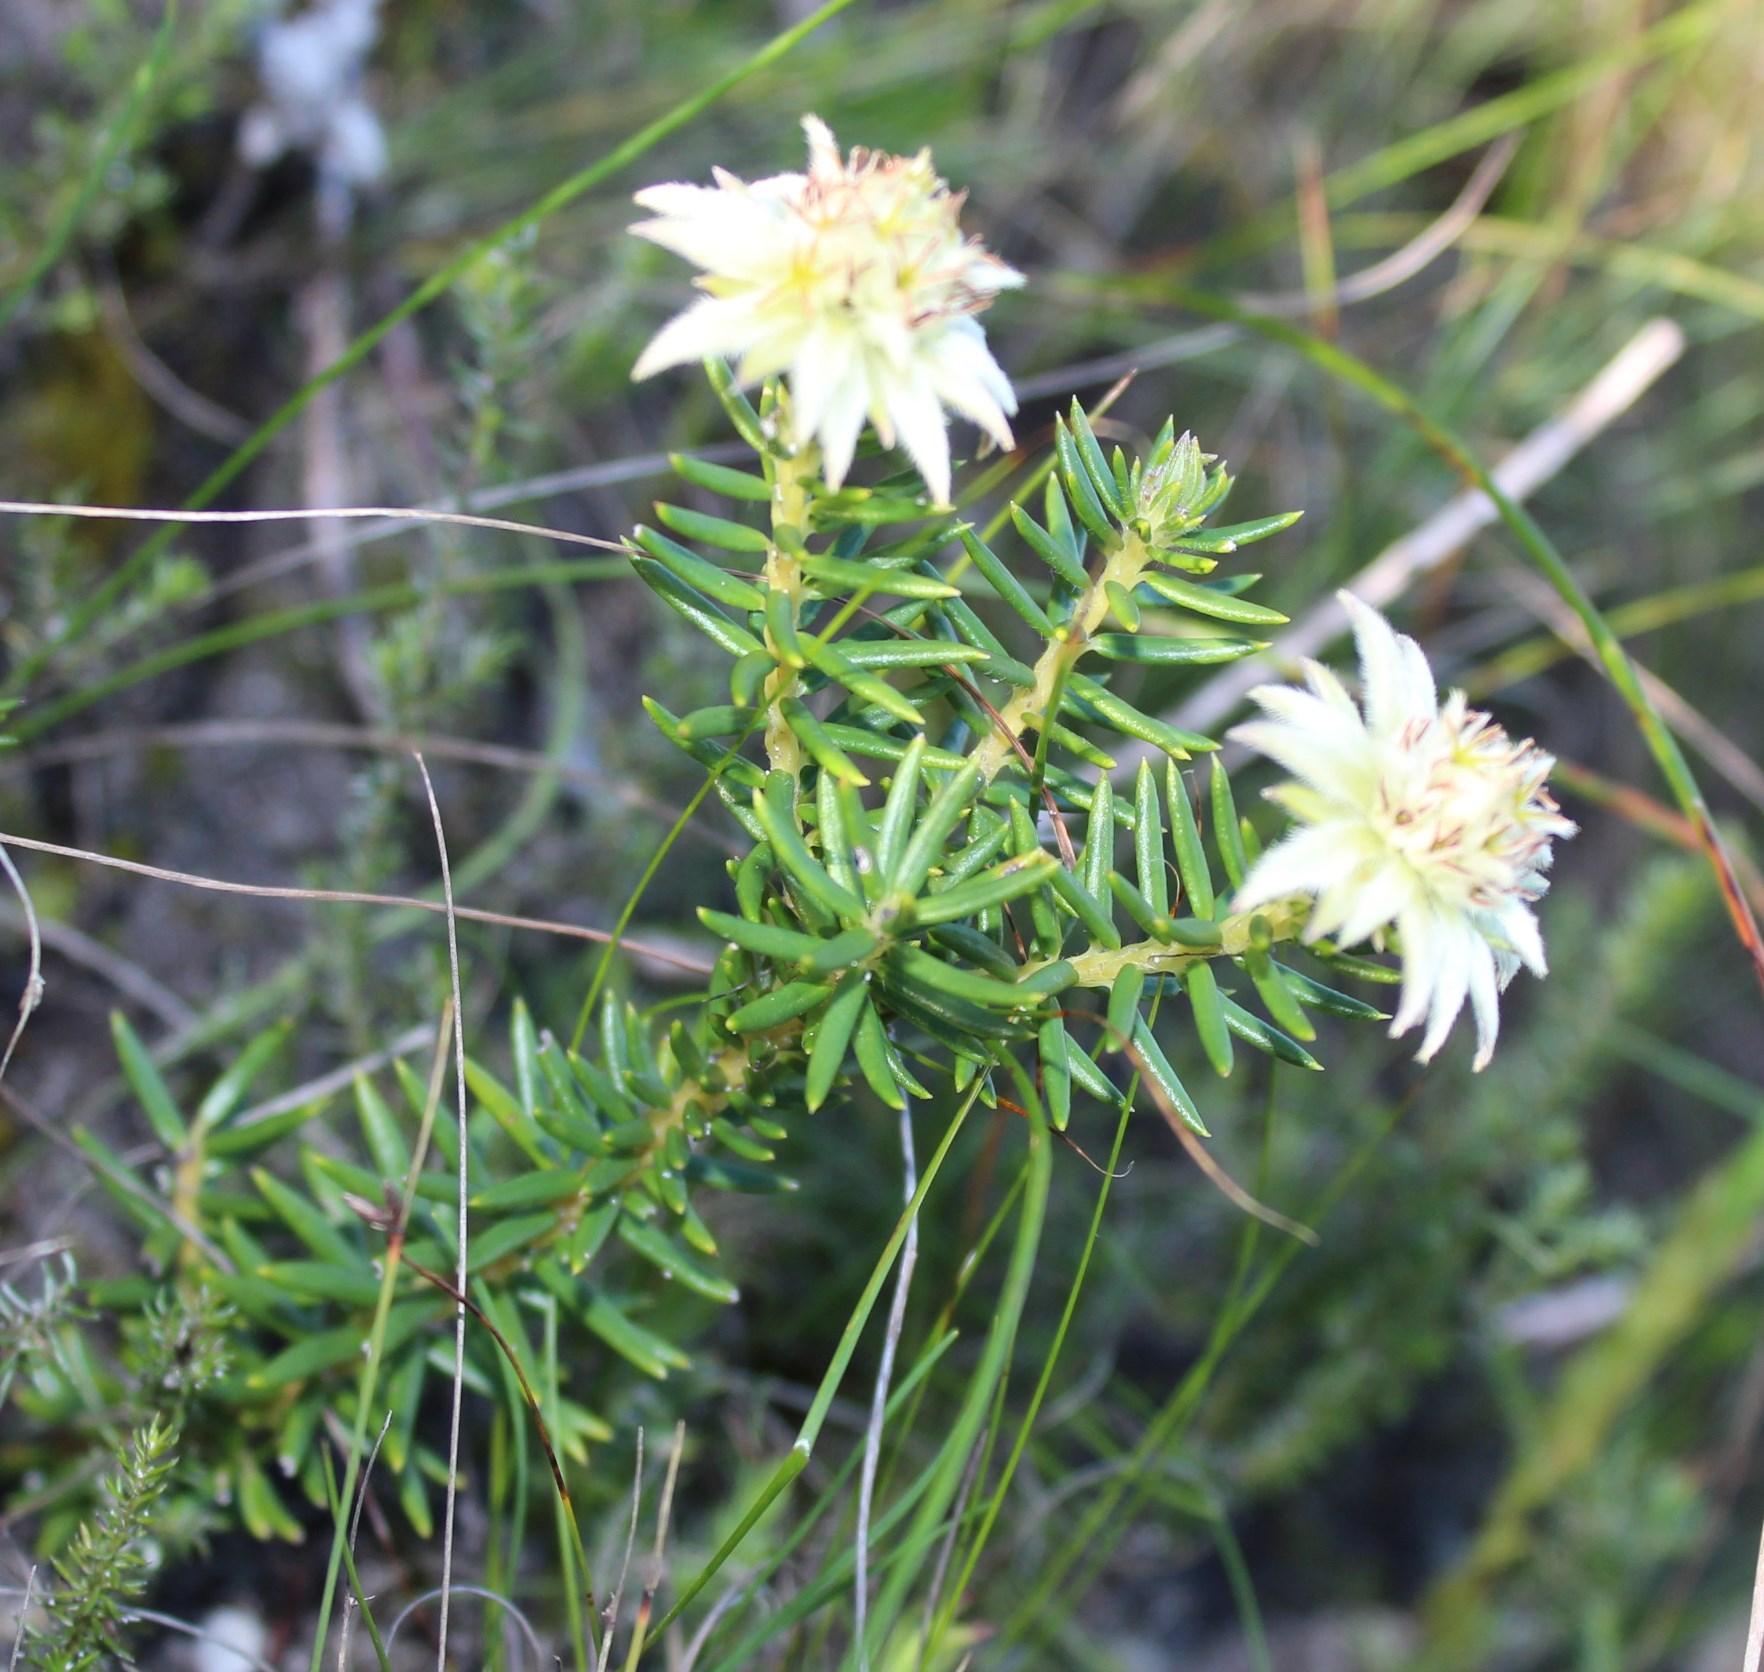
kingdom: Plantae
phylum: Tracheophyta
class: Magnoliopsida
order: Rosales
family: Rhamnaceae
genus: Phylica
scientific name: Phylica dodii
